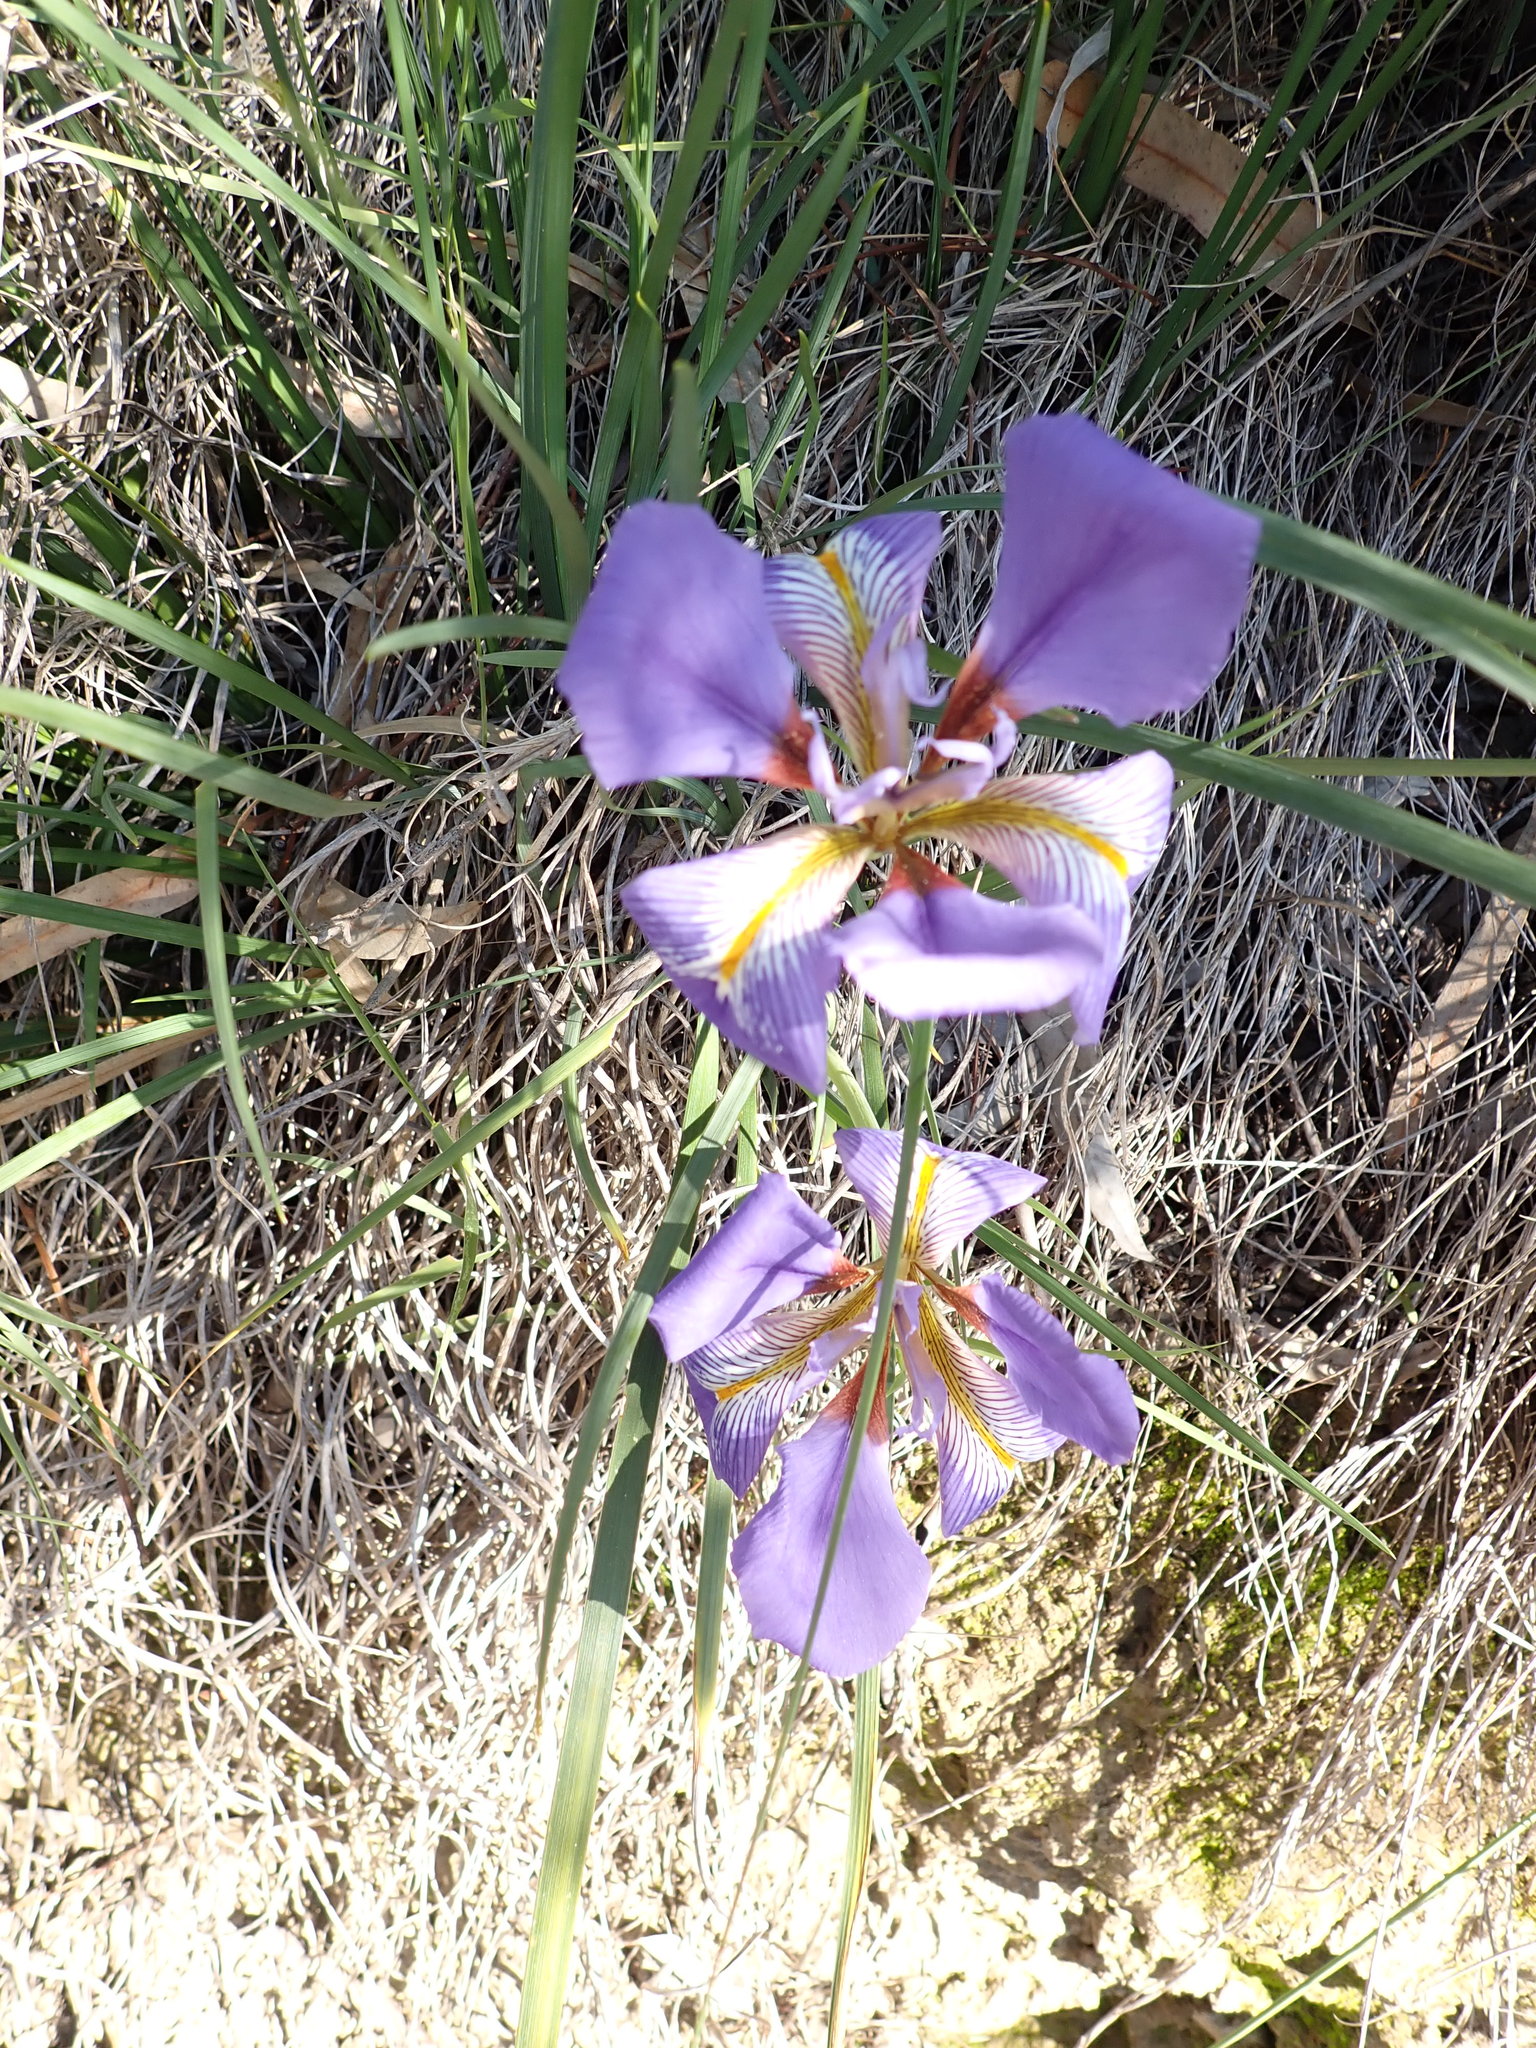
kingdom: Plantae
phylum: Tracheophyta
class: Liliopsida
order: Asparagales
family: Iridaceae
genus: Iris
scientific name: Iris unguicularis
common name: Algerian iris
